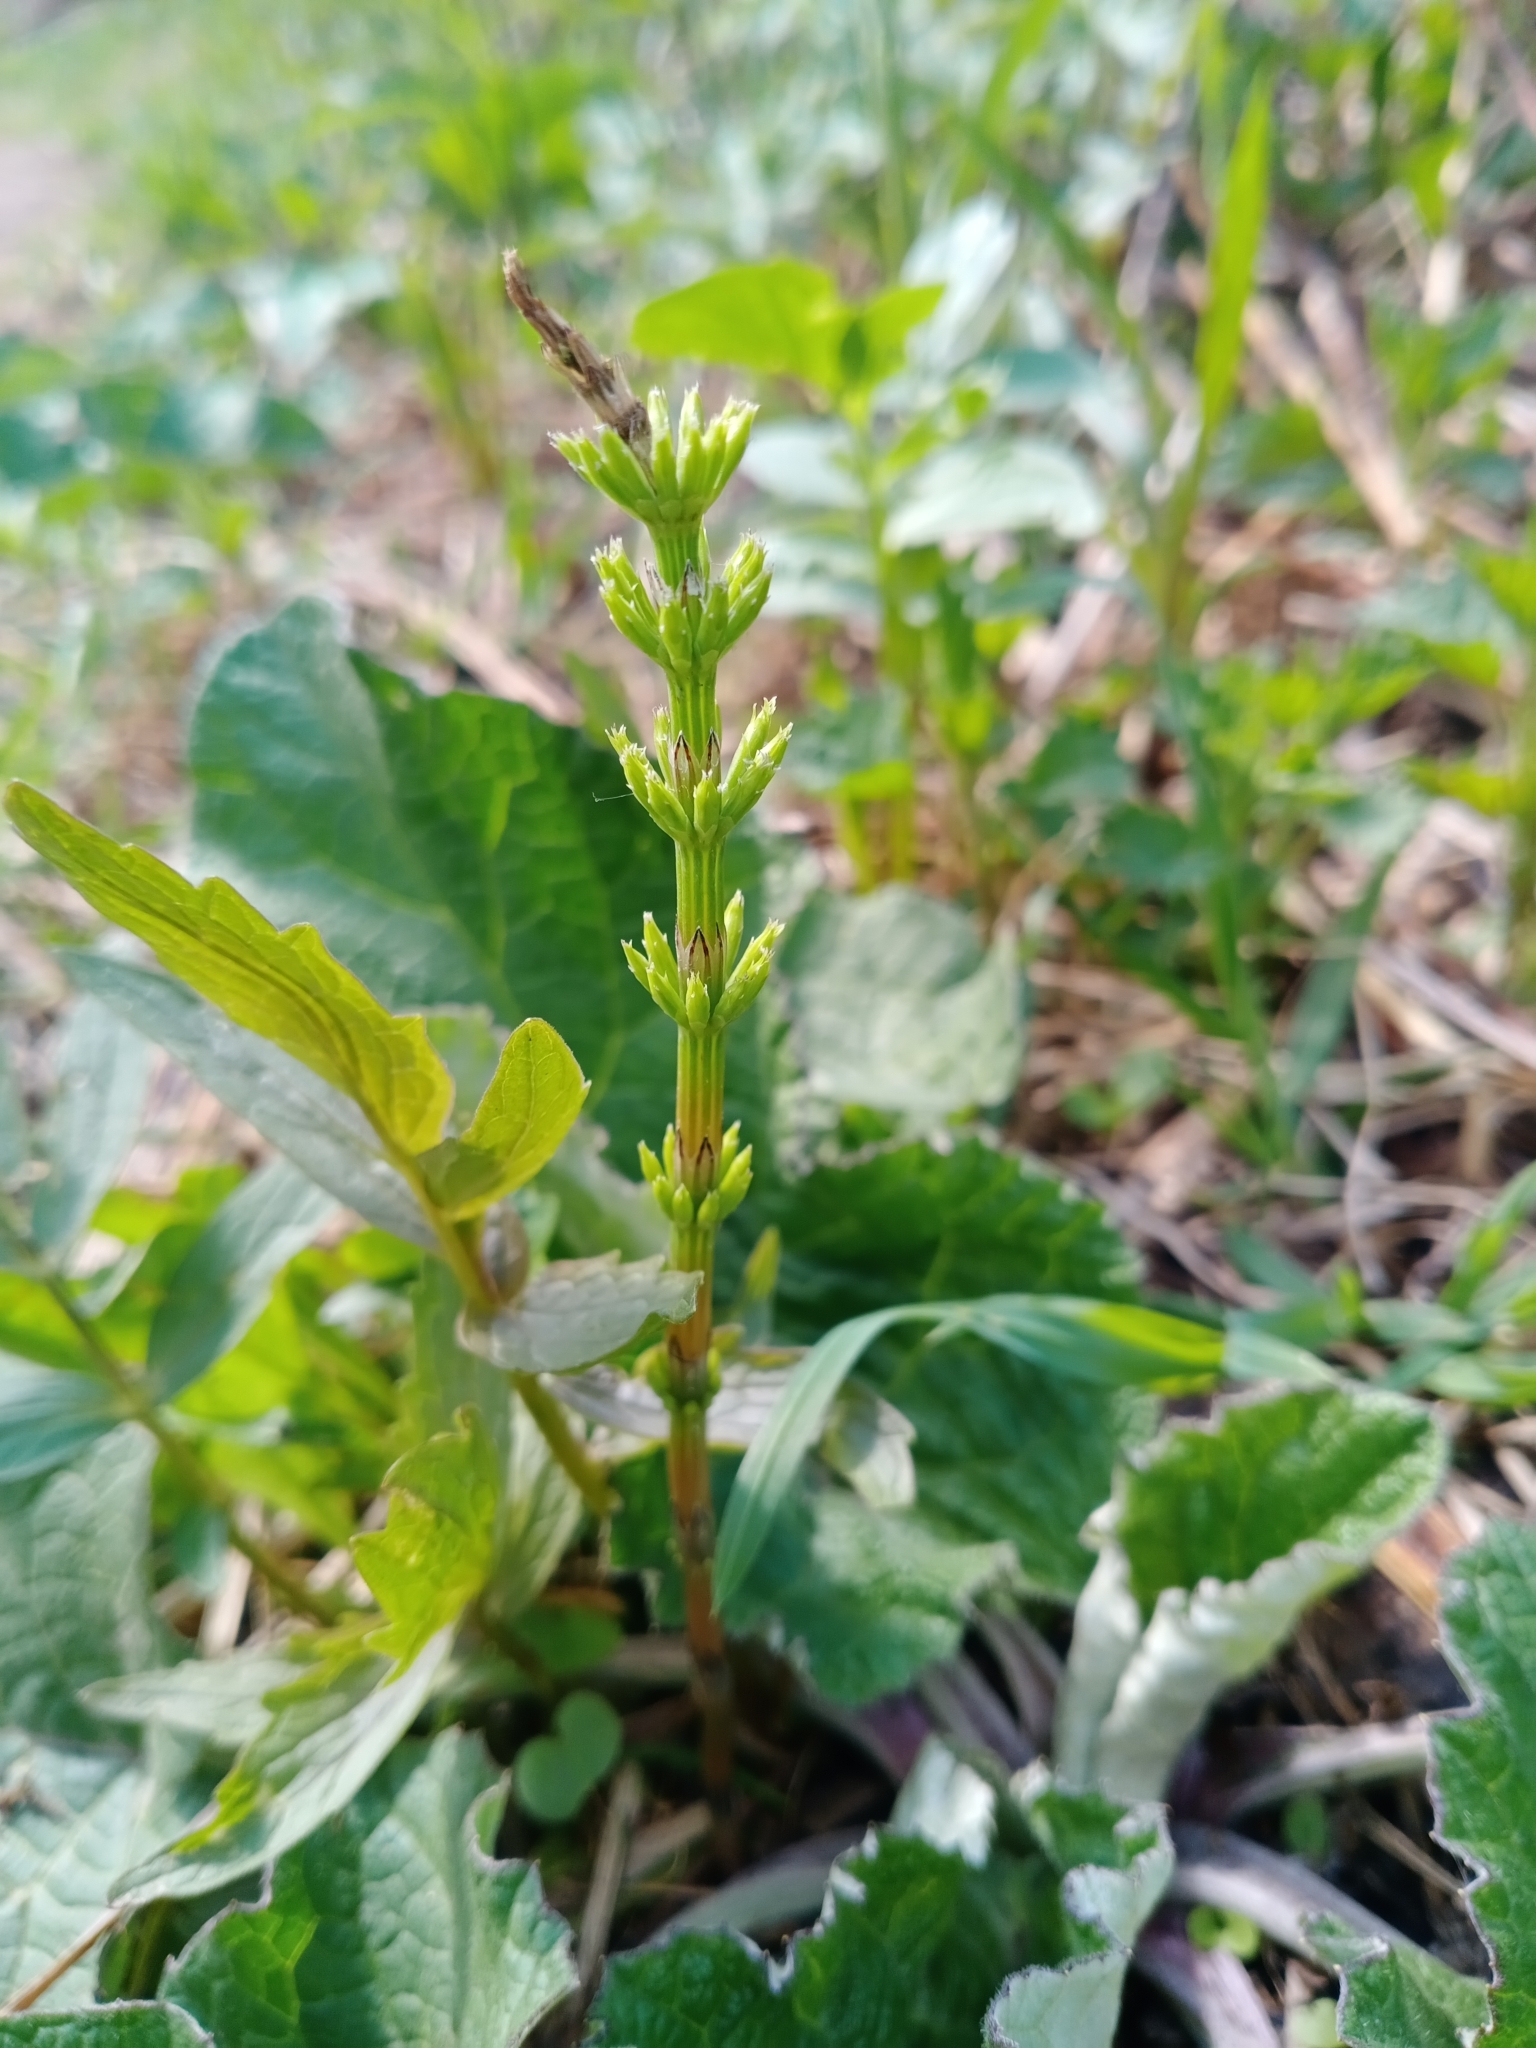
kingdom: Plantae
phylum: Tracheophyta
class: Polypodiopsida
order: Equisetales
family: Equisetaceae
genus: Equisetum
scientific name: Equisetum arvense
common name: Field horsetail
